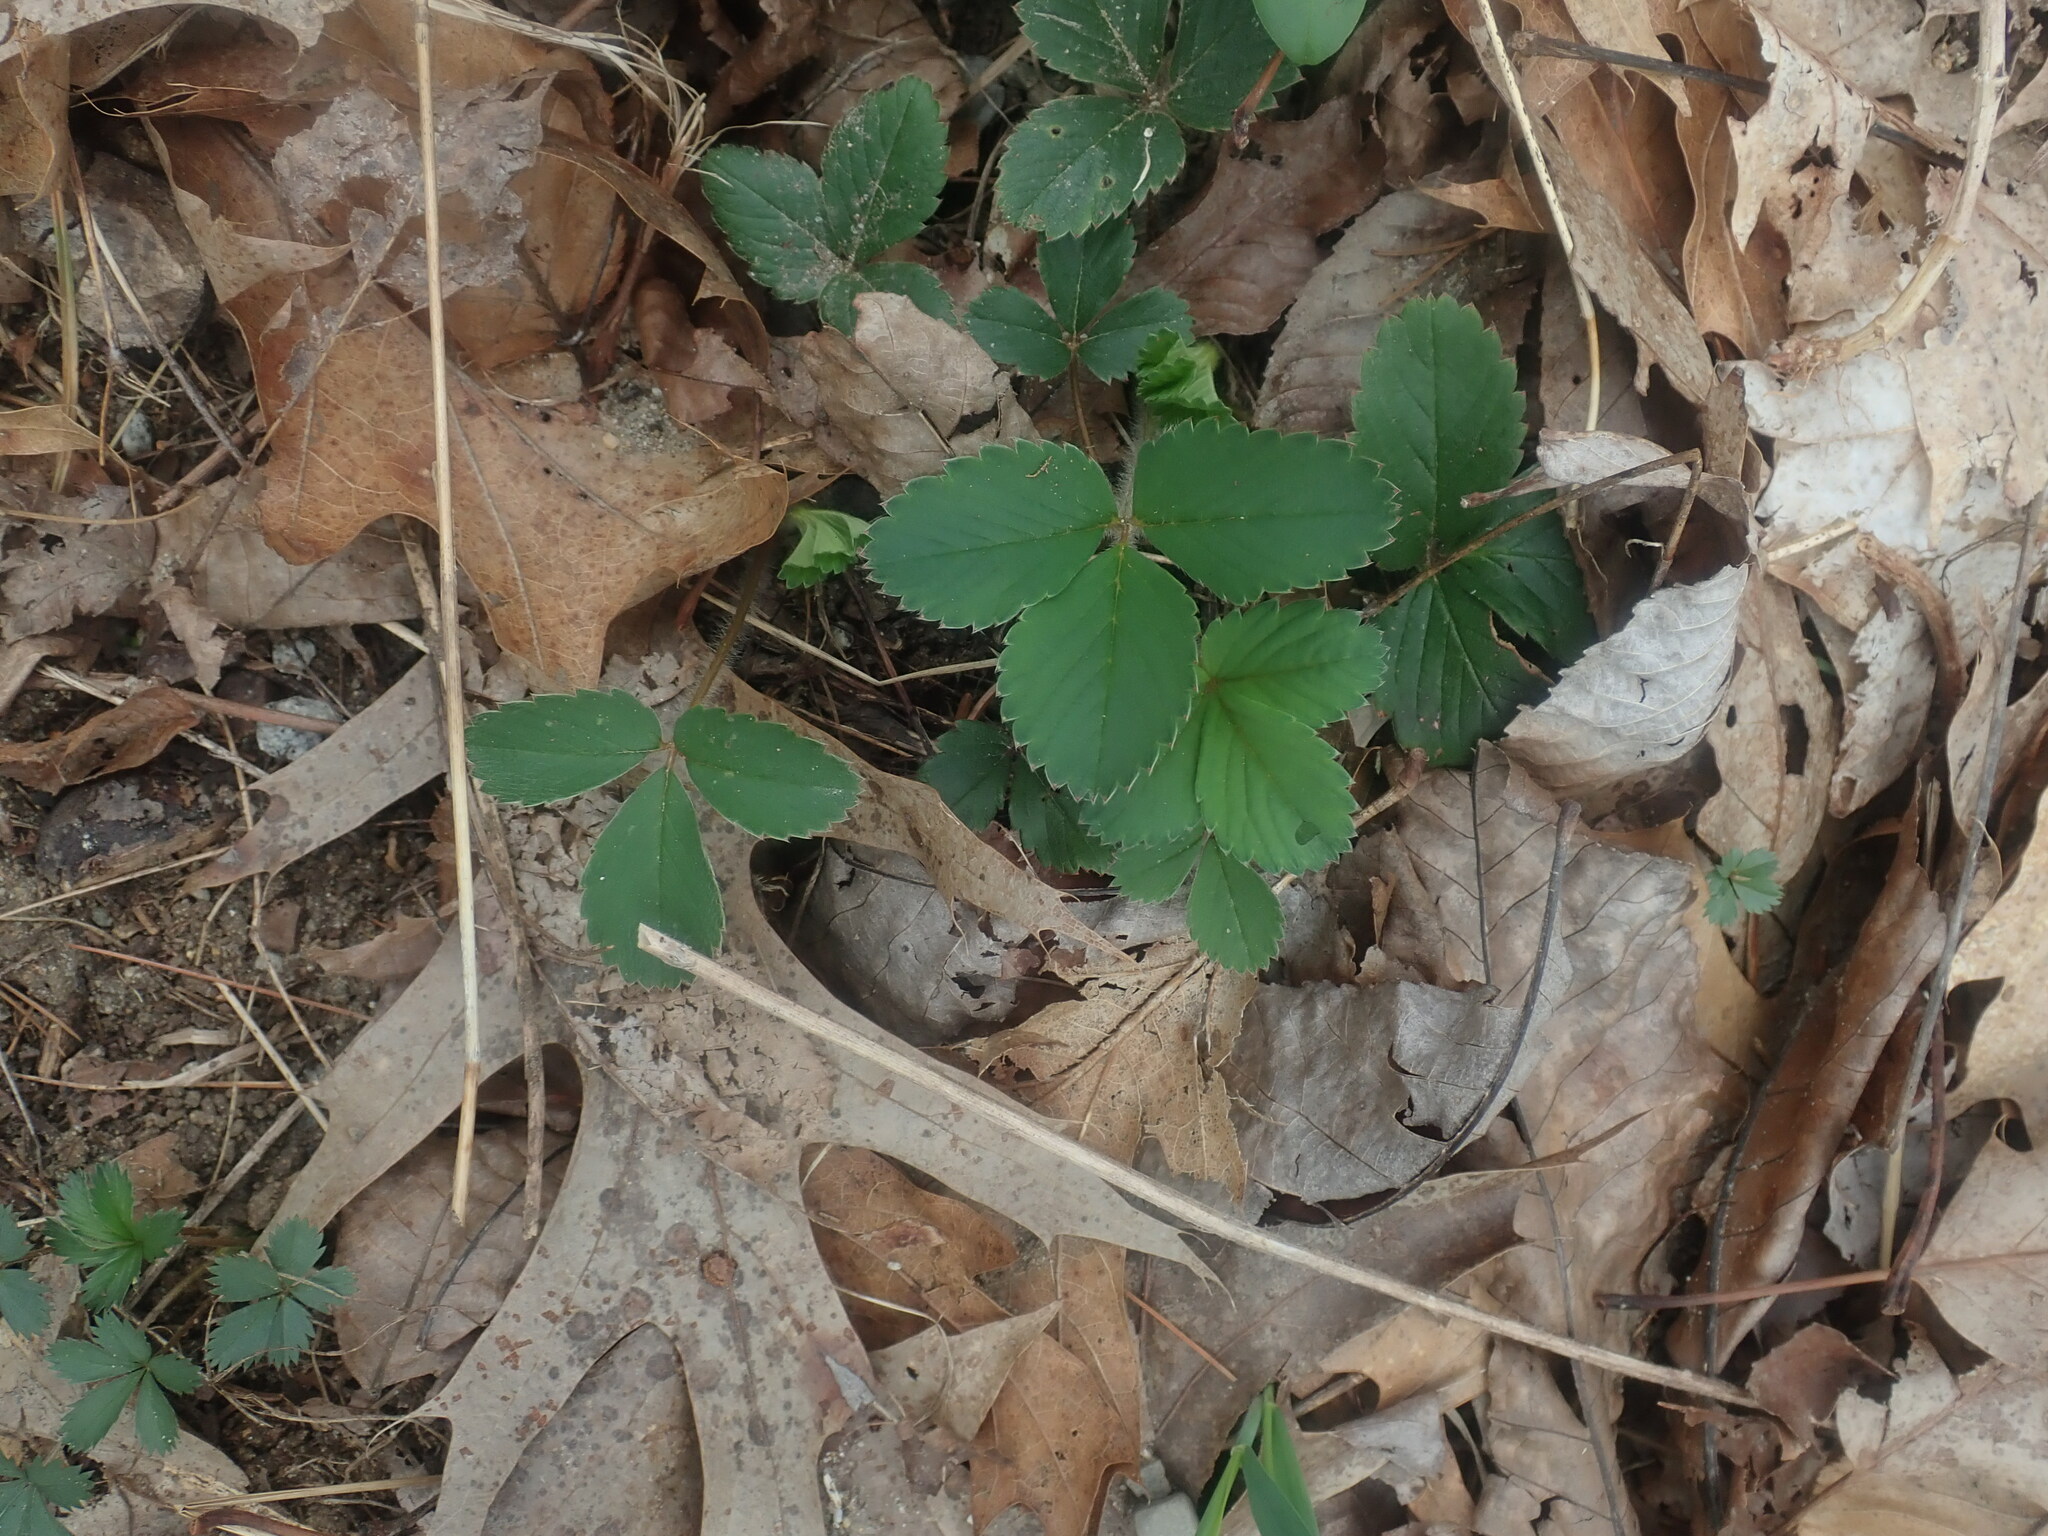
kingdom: Plantae
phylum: Tracheophyta
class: Magnoliopsida
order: Rosales
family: Rosaceae
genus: Fragaria
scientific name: Fragaria
